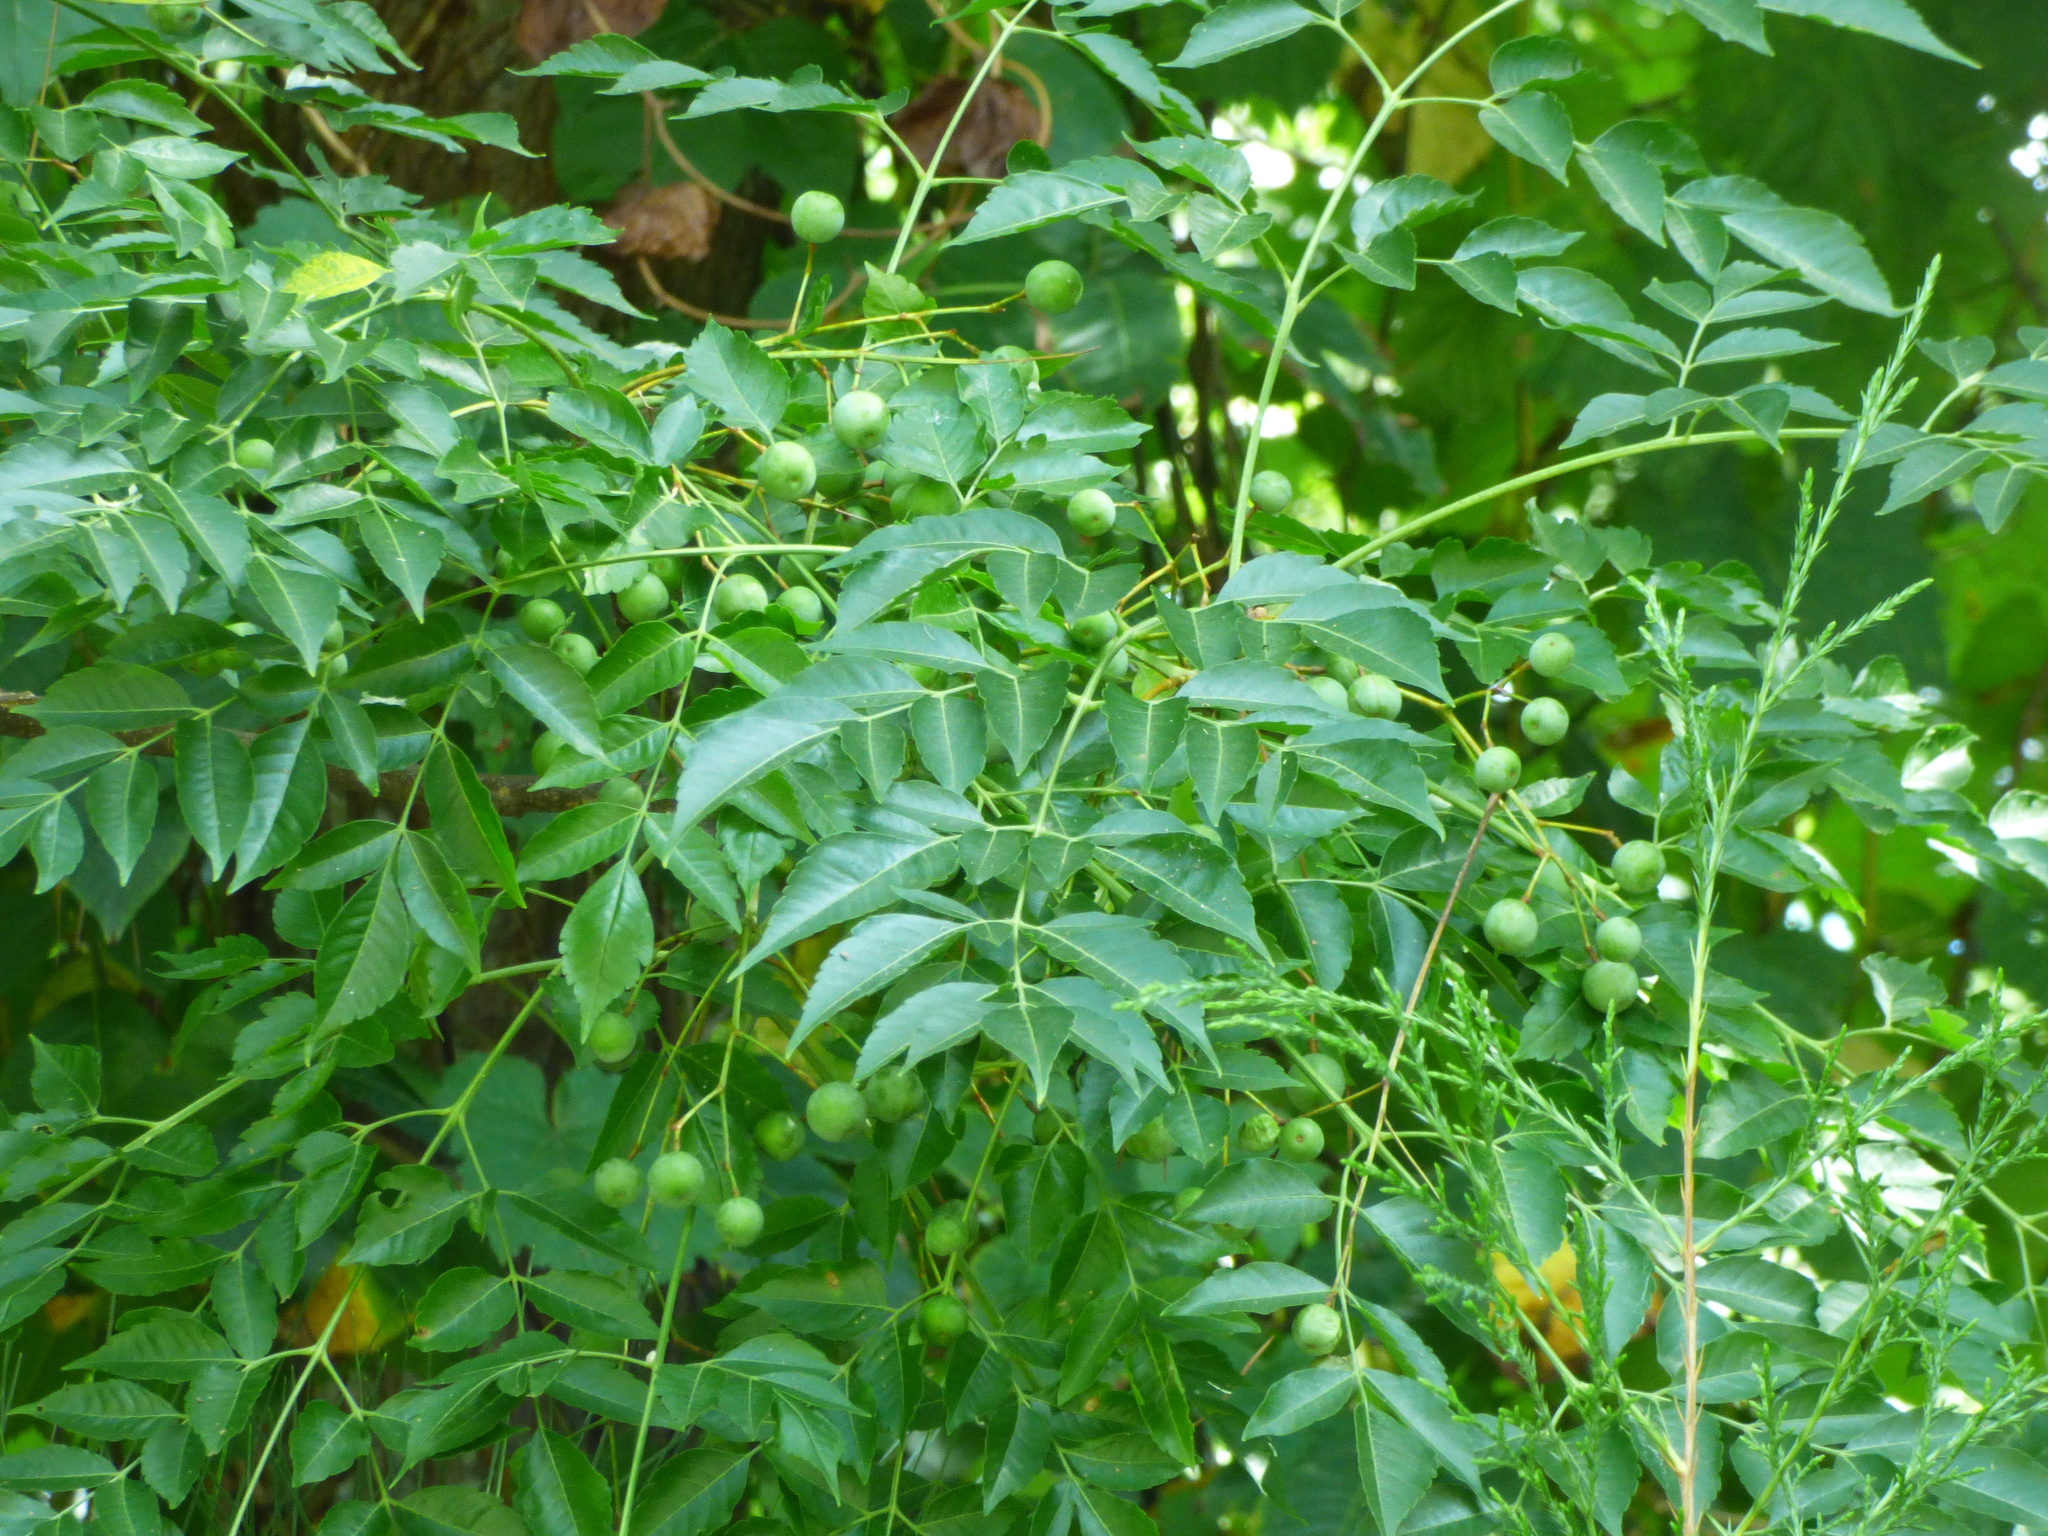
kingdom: Plantae
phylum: Tracheophyta
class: Magnoliopsida
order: Sapindales
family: Meliaceae
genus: Melia
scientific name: Melia azedarach
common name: Chinaberrytree
